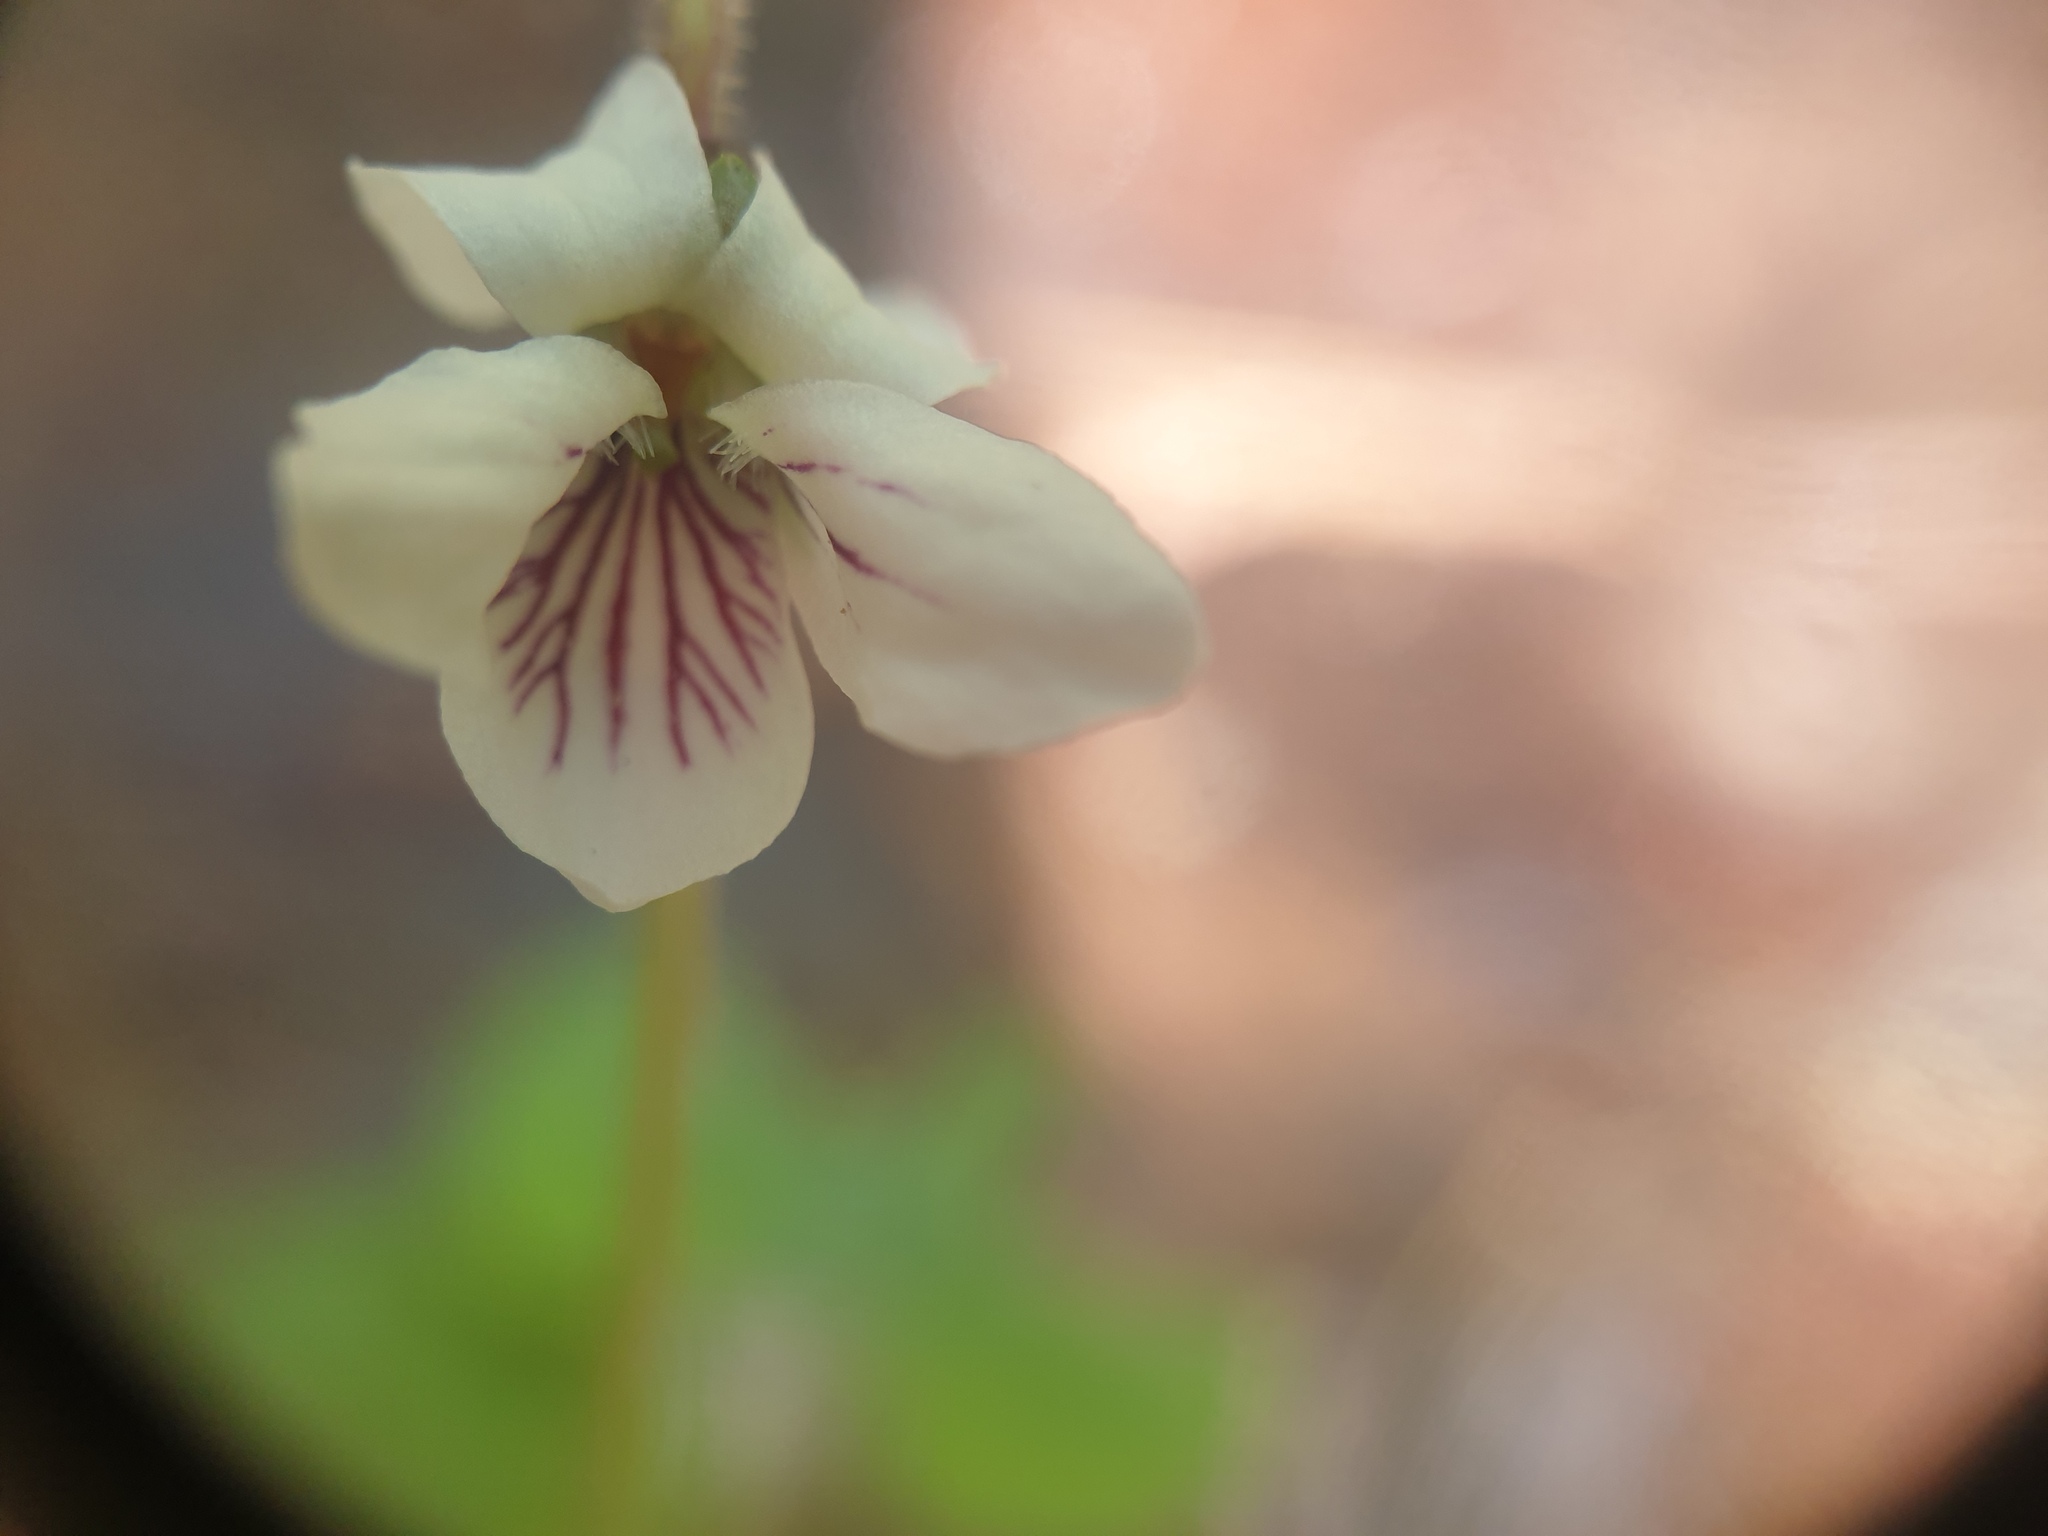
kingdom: Plantae
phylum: Tracheophyta
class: Magnoliopsida
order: Malpighiales
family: Violaceae
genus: Viola
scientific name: Viola incognita
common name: Largeleaf white violet
